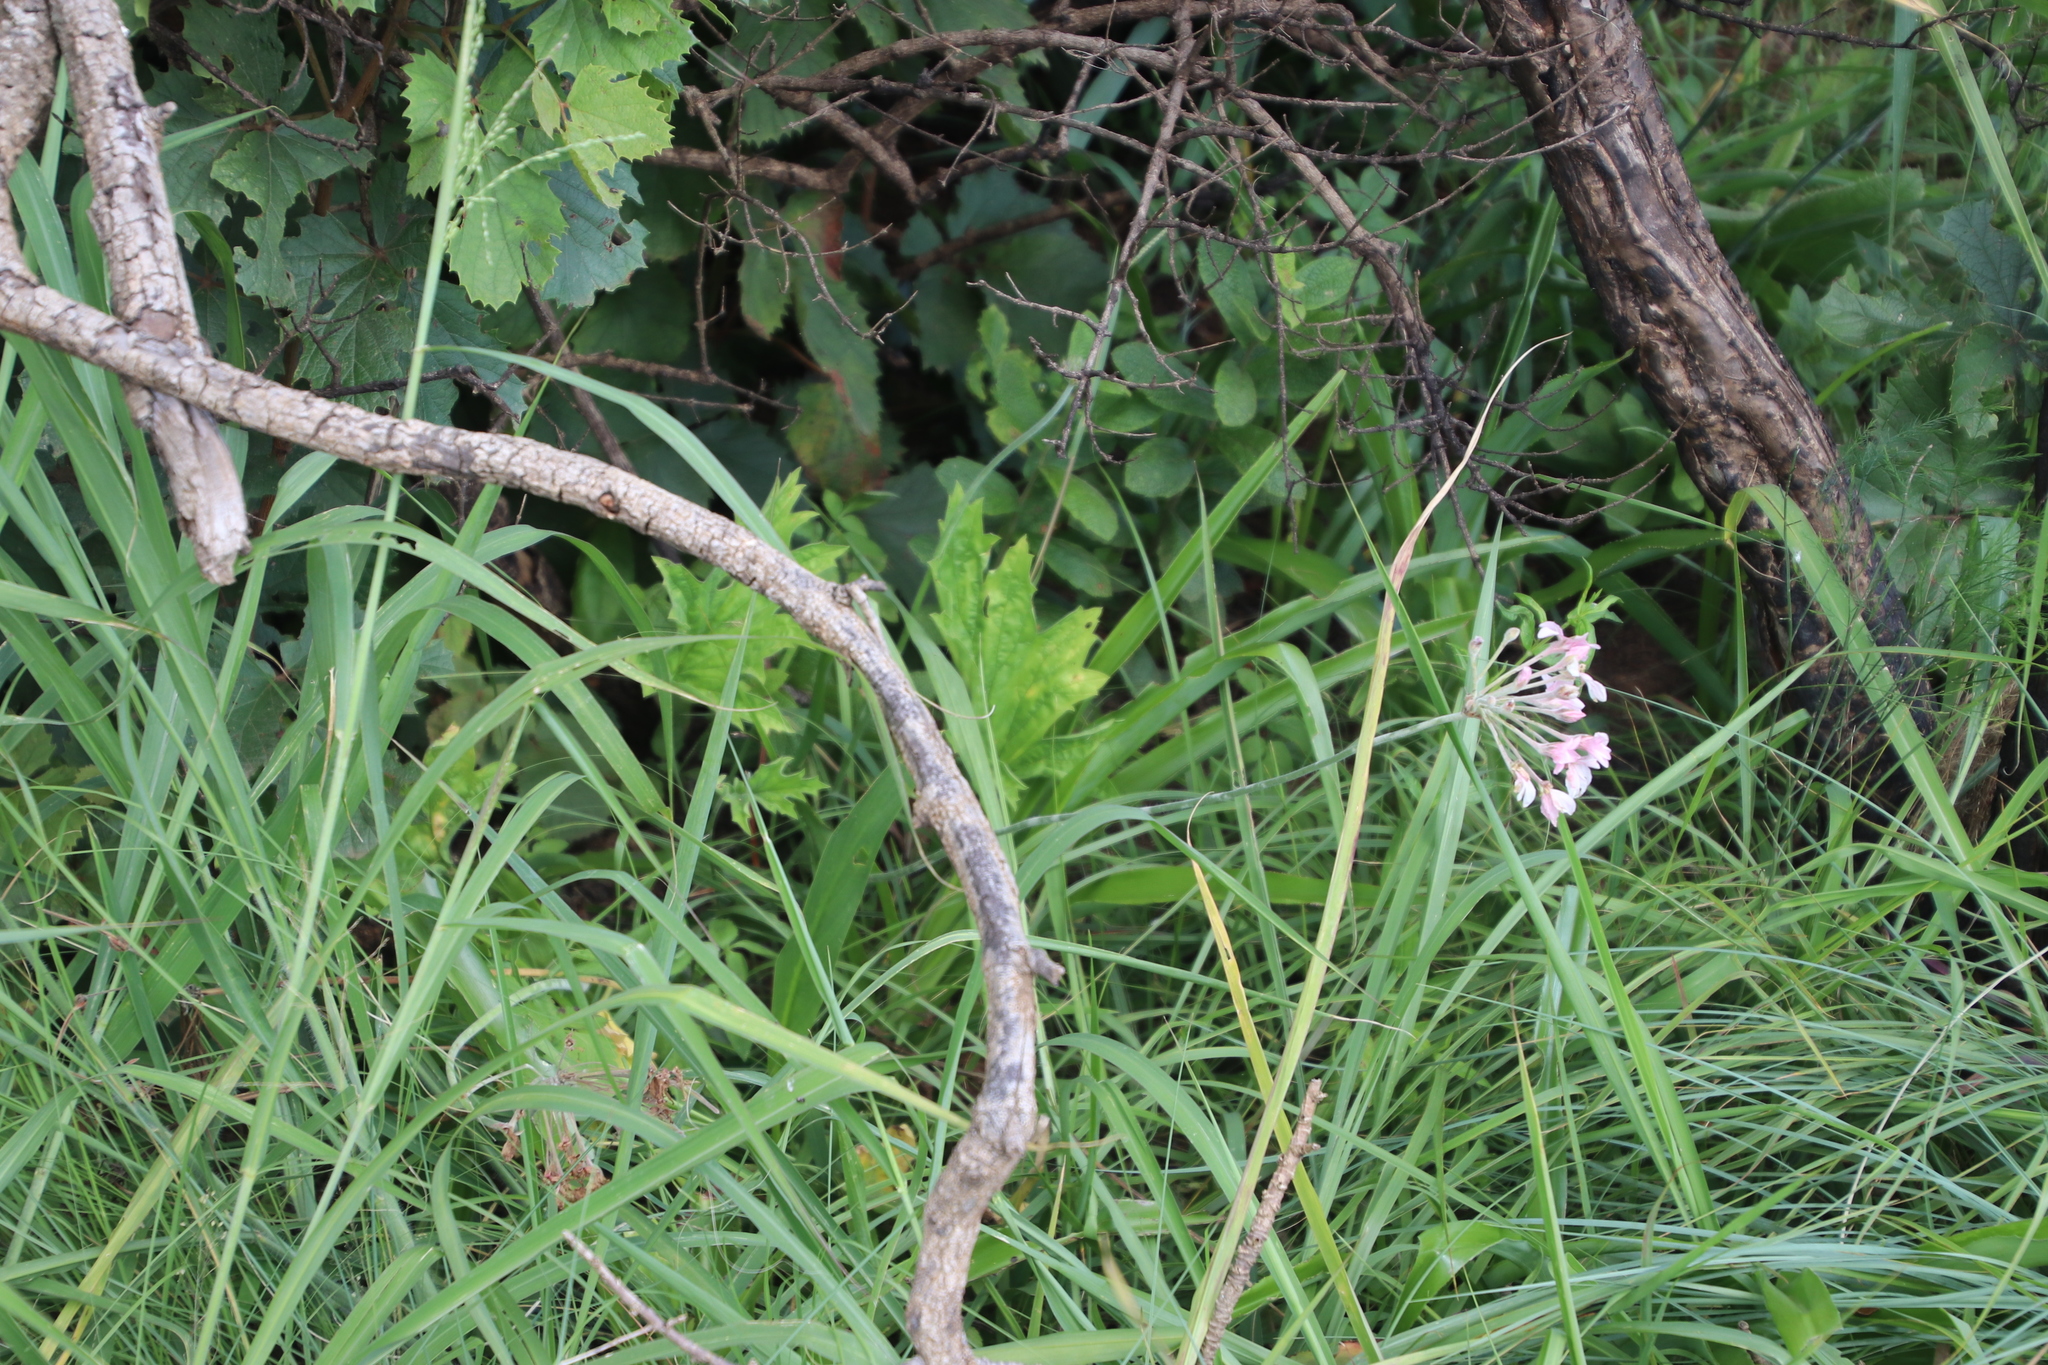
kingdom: Plantae
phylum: Tracheophyta
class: Magnoliopsida
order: Geraniales
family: Geraniaceae
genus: Pelargonium
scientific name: Pelargonium luridum
